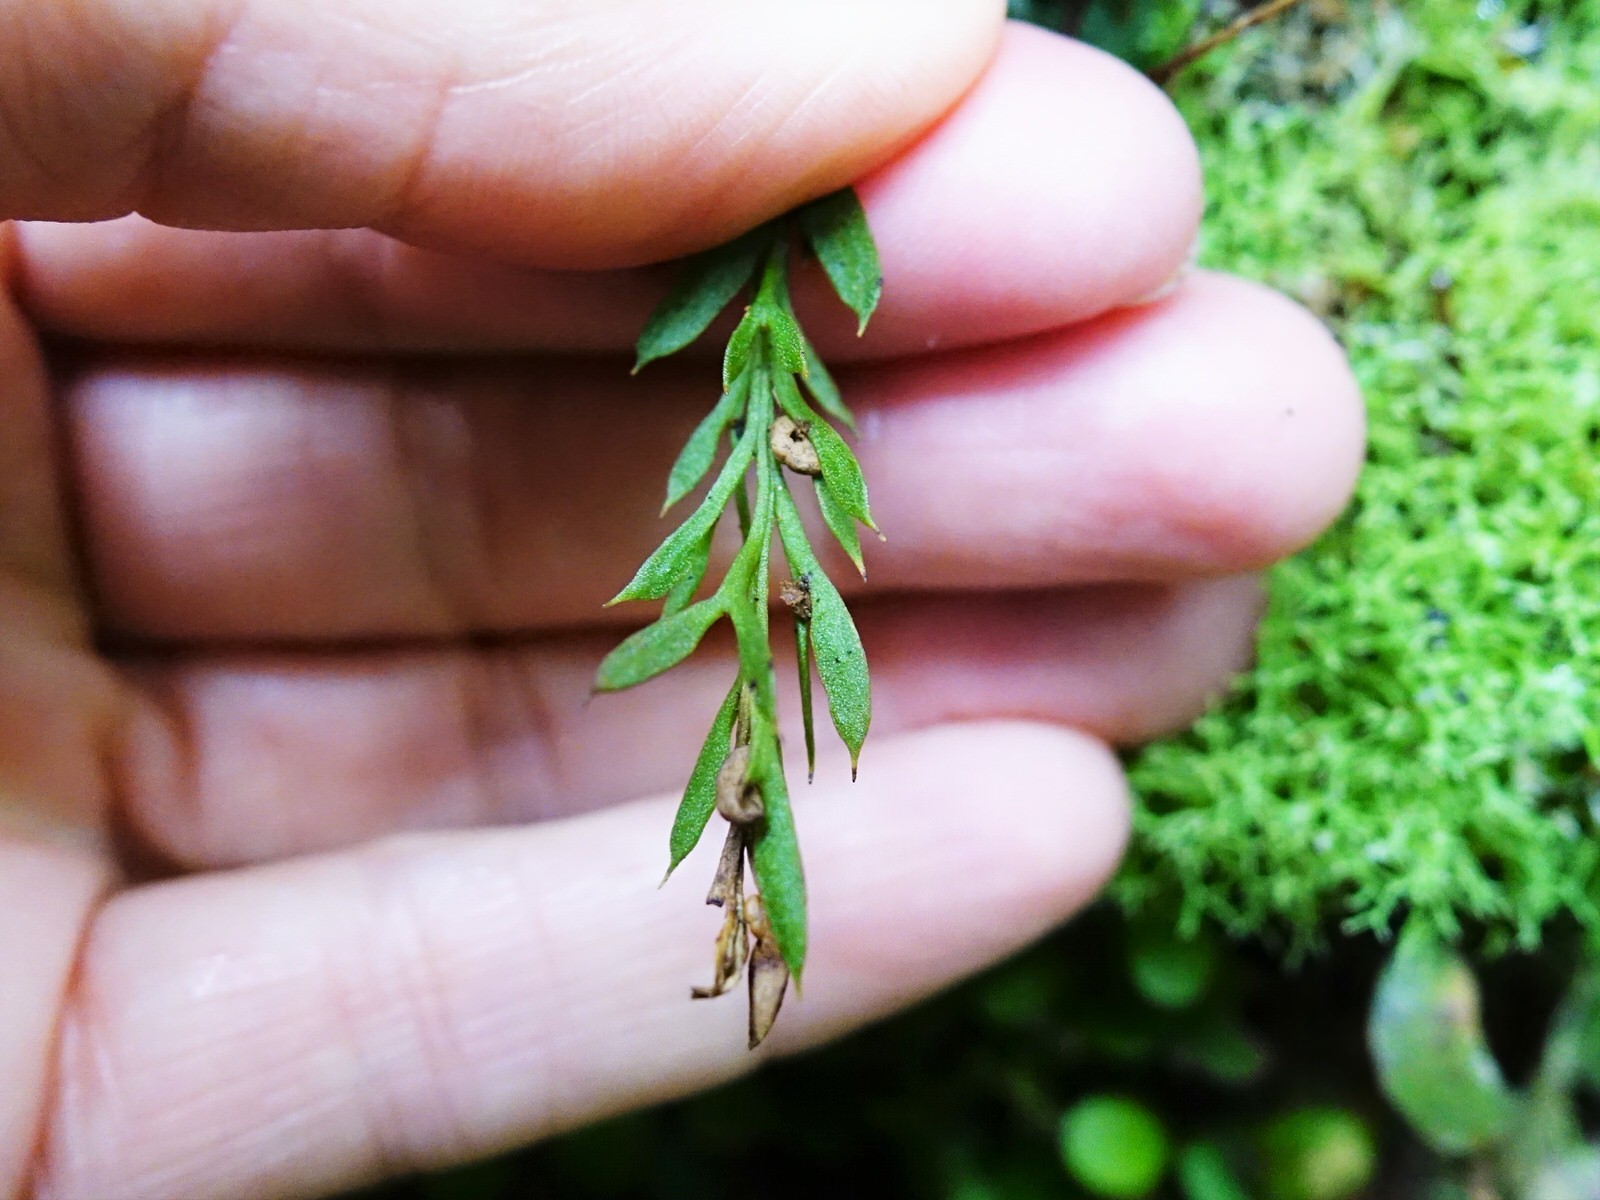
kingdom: Plantae
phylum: Tracheophyta
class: Polypodiopsida
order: Psilotales
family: Psilotaceae
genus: Tmesipteris
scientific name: Tmesipteris elongata
